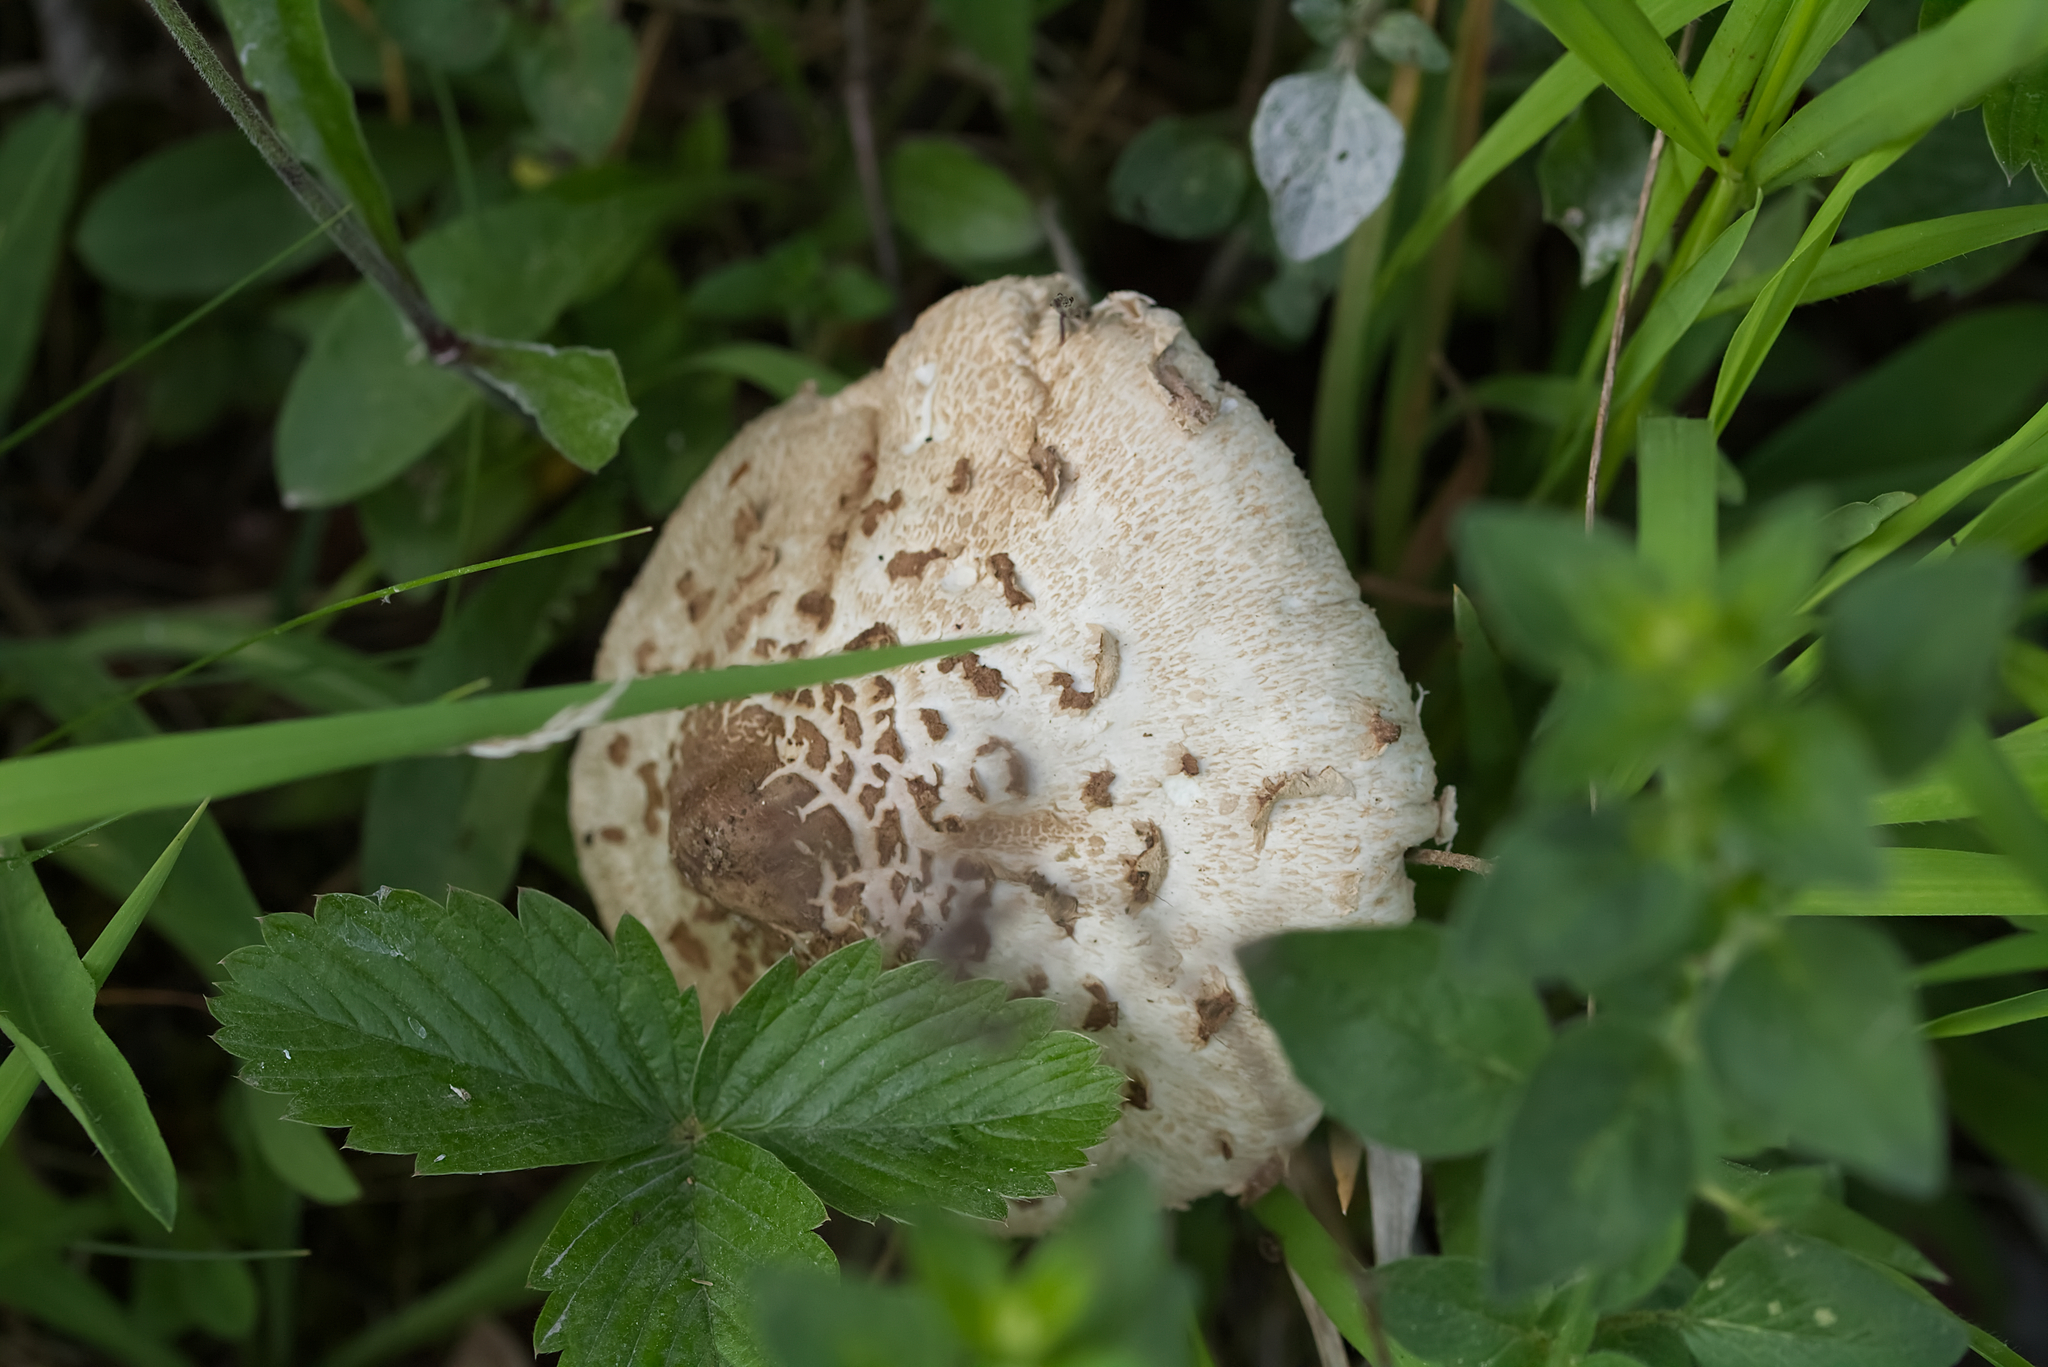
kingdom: Fungi
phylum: Basidiomycota
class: Agaricomycetes
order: Agaricales
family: Agaricaceae
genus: Macrolepiota
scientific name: Macrolepiota procera
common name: Parasol
